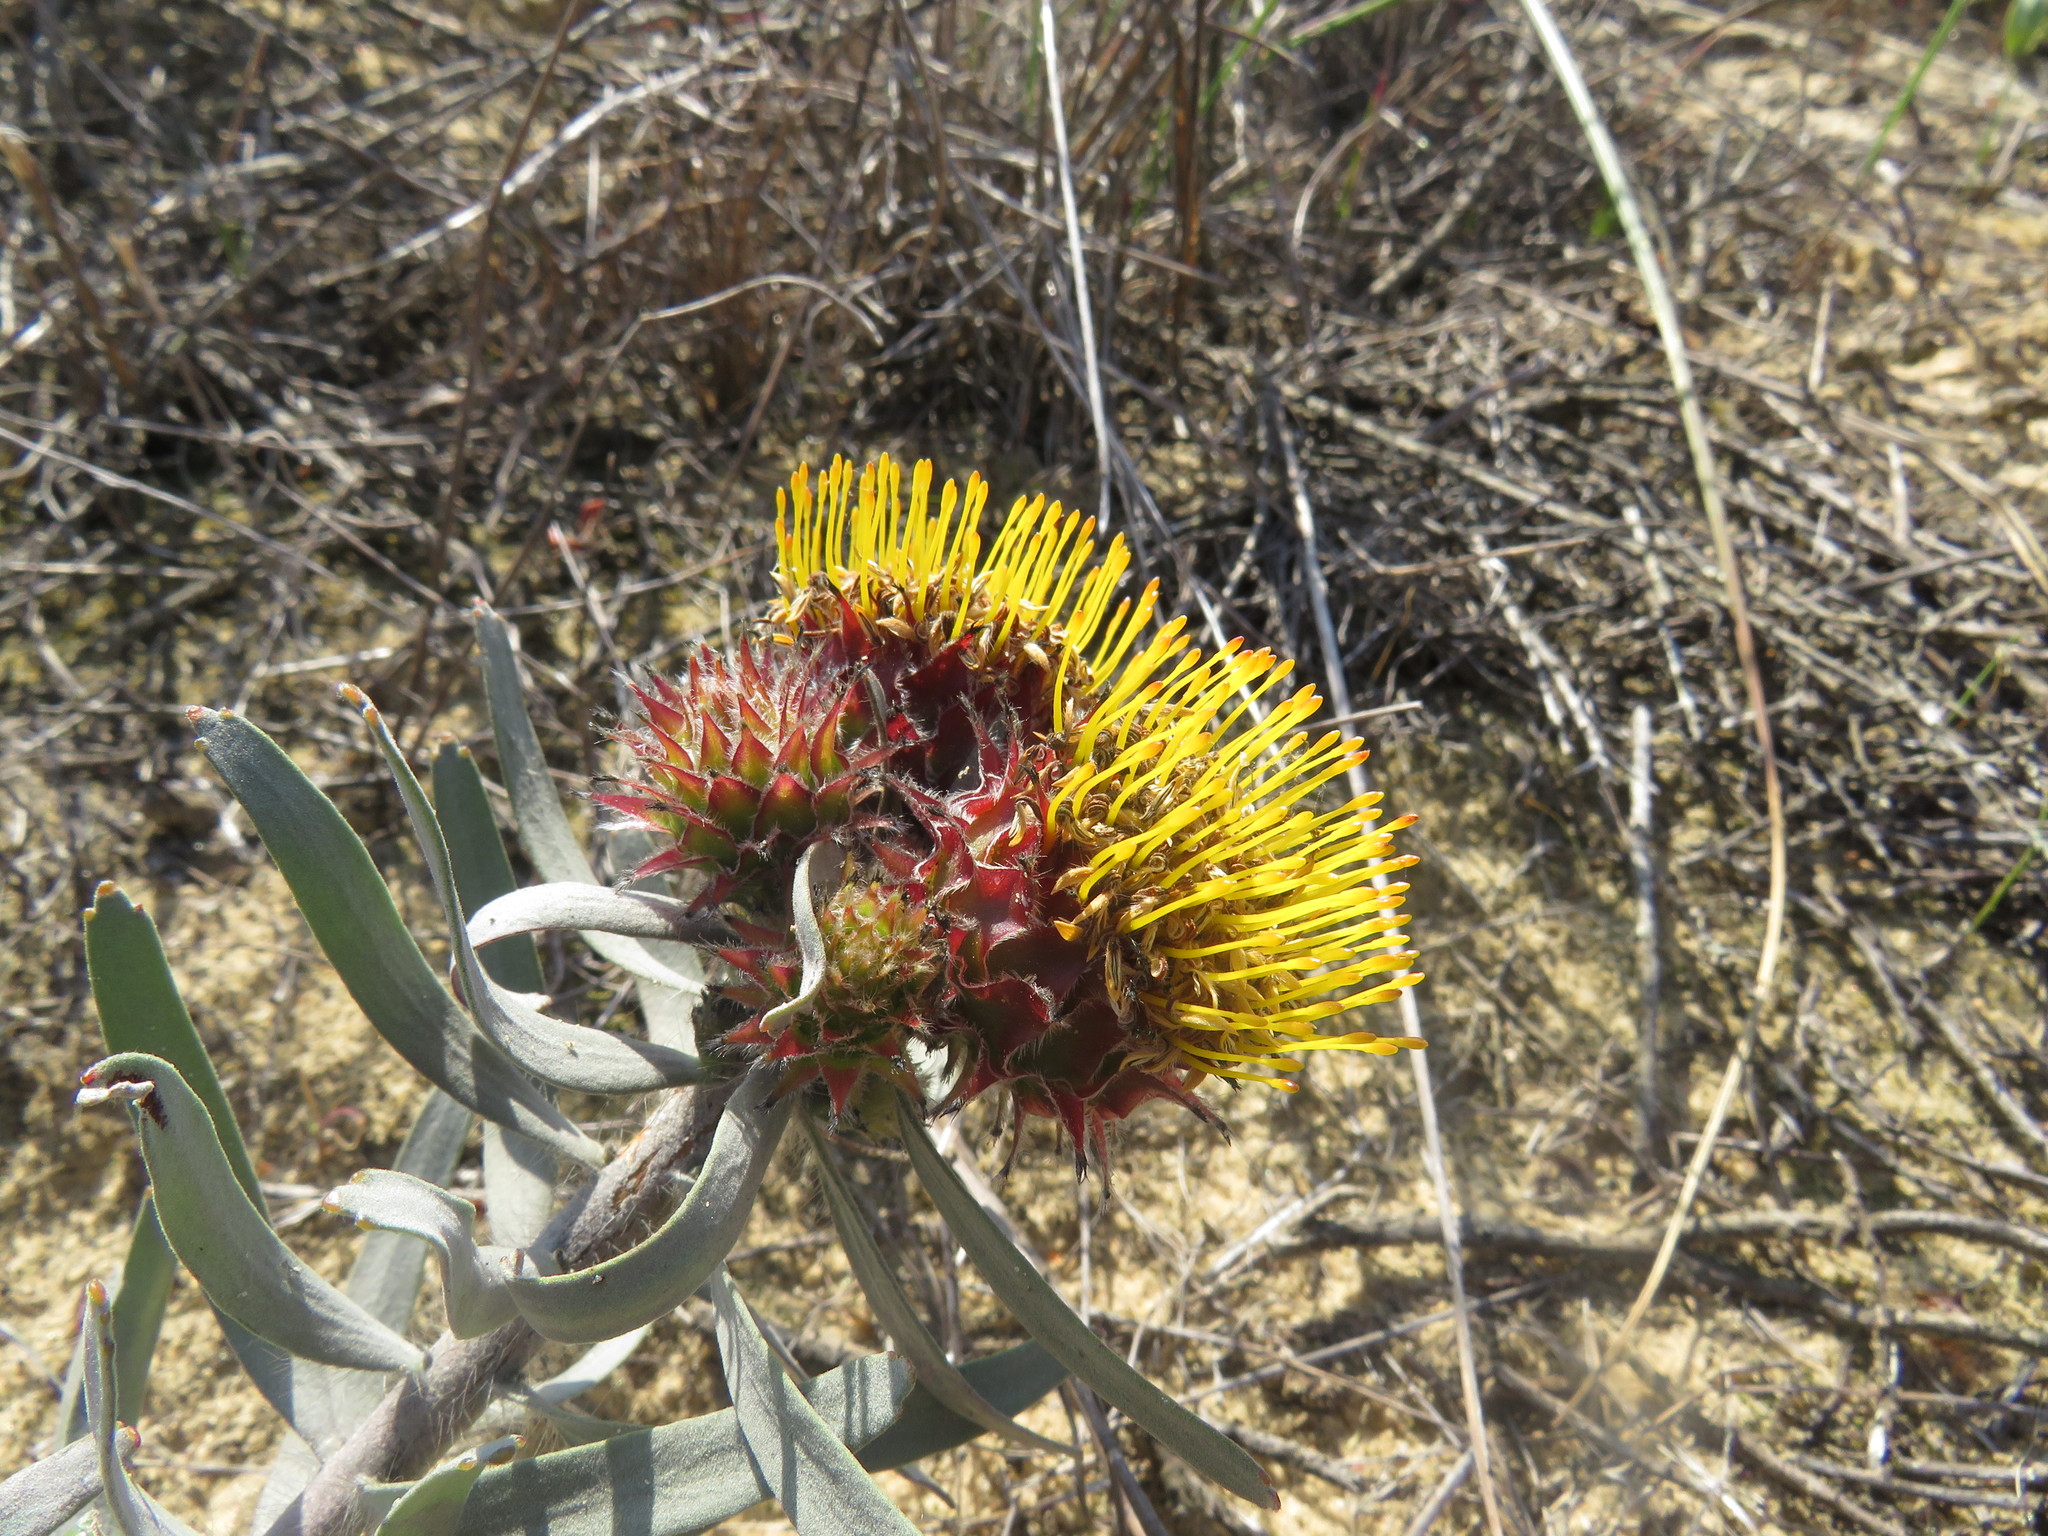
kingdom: Plantae
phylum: Tracheophyta
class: Magnoliopsida
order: Proteales
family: Proteaceae
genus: Leucospermum
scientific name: Leucospermum parile
